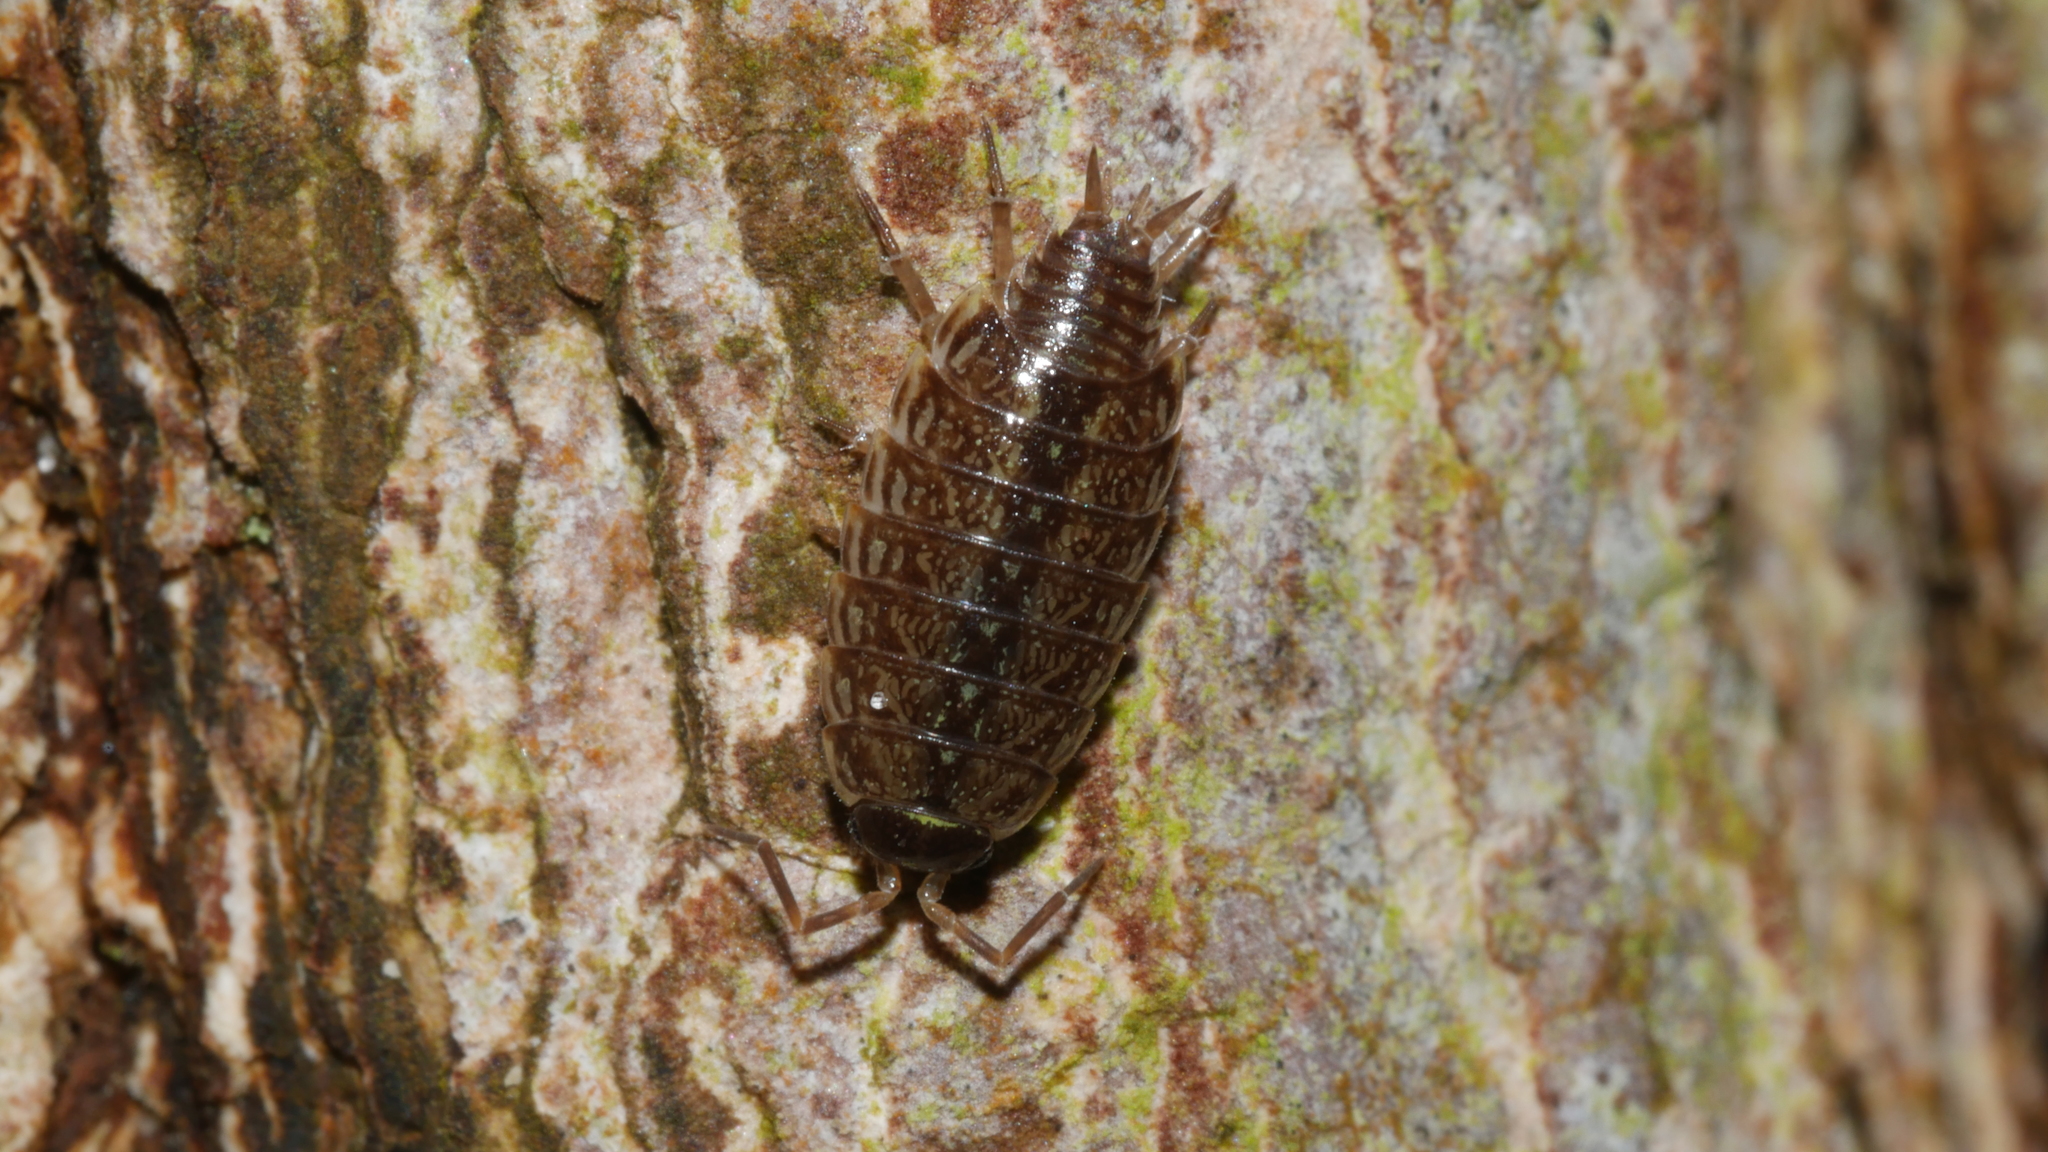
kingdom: Animalia
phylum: Arthropoda
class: Malacostraca
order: Isopoda
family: Philosciidae
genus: Philoscia
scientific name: Philoscia muscorum
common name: Common striped woodlouse
